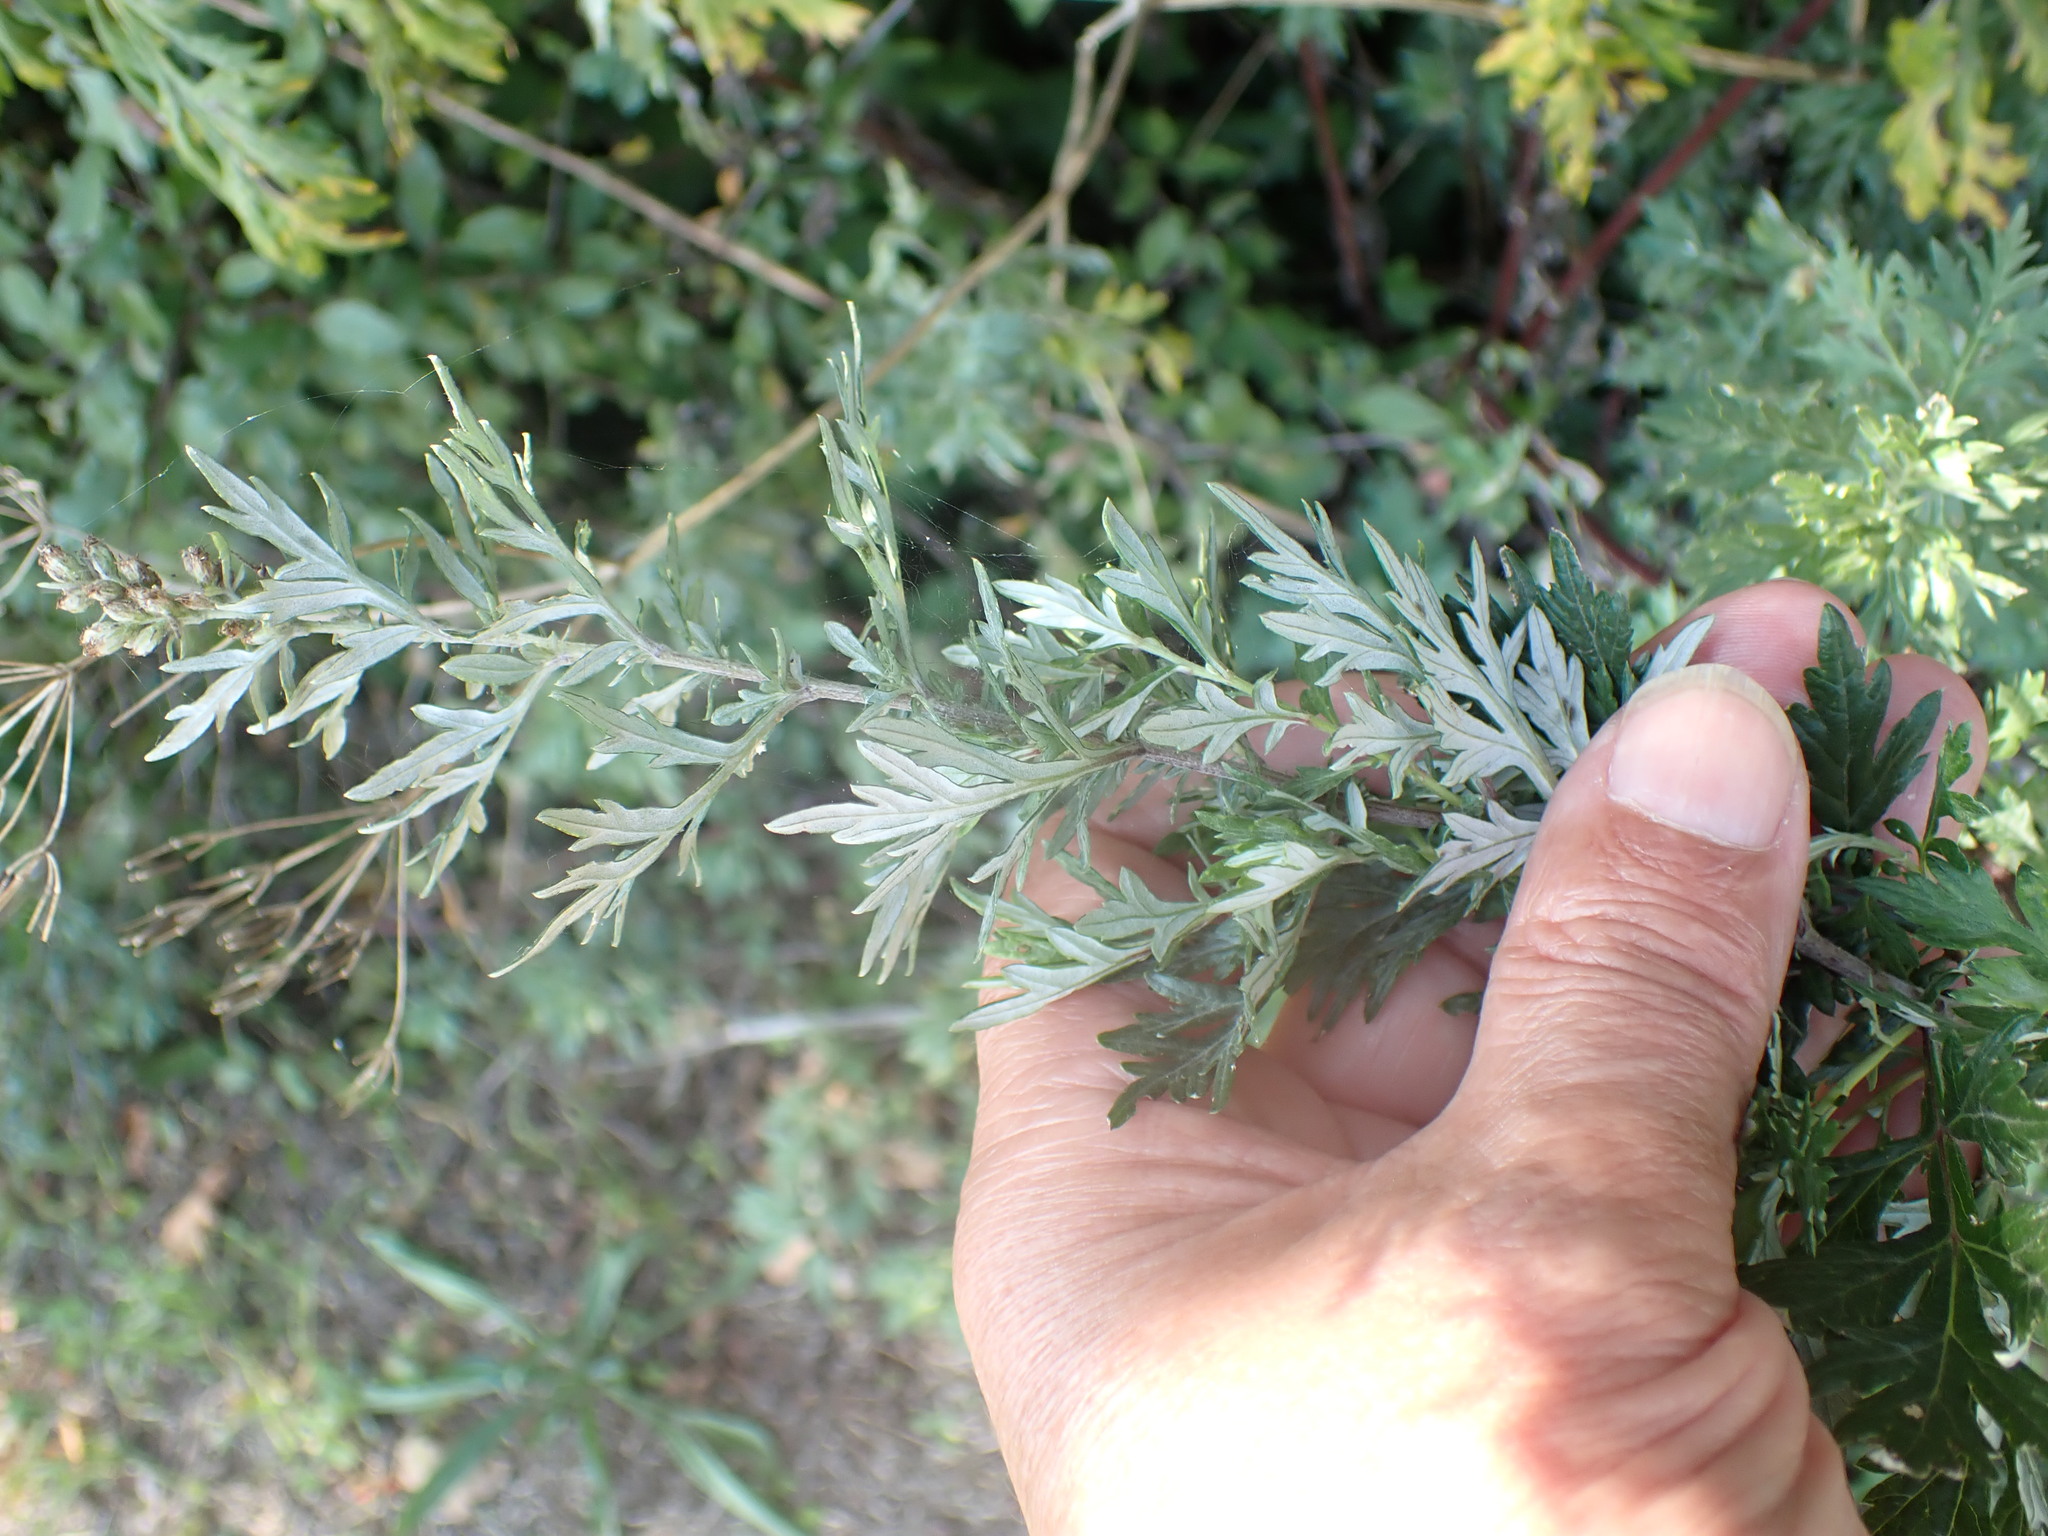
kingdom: Plantae
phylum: Tracheophyta
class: Magnoliopsida
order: Asterales
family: Asteraceae
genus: Artemisia
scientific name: Artemisia vulgaris
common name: Mugwort
